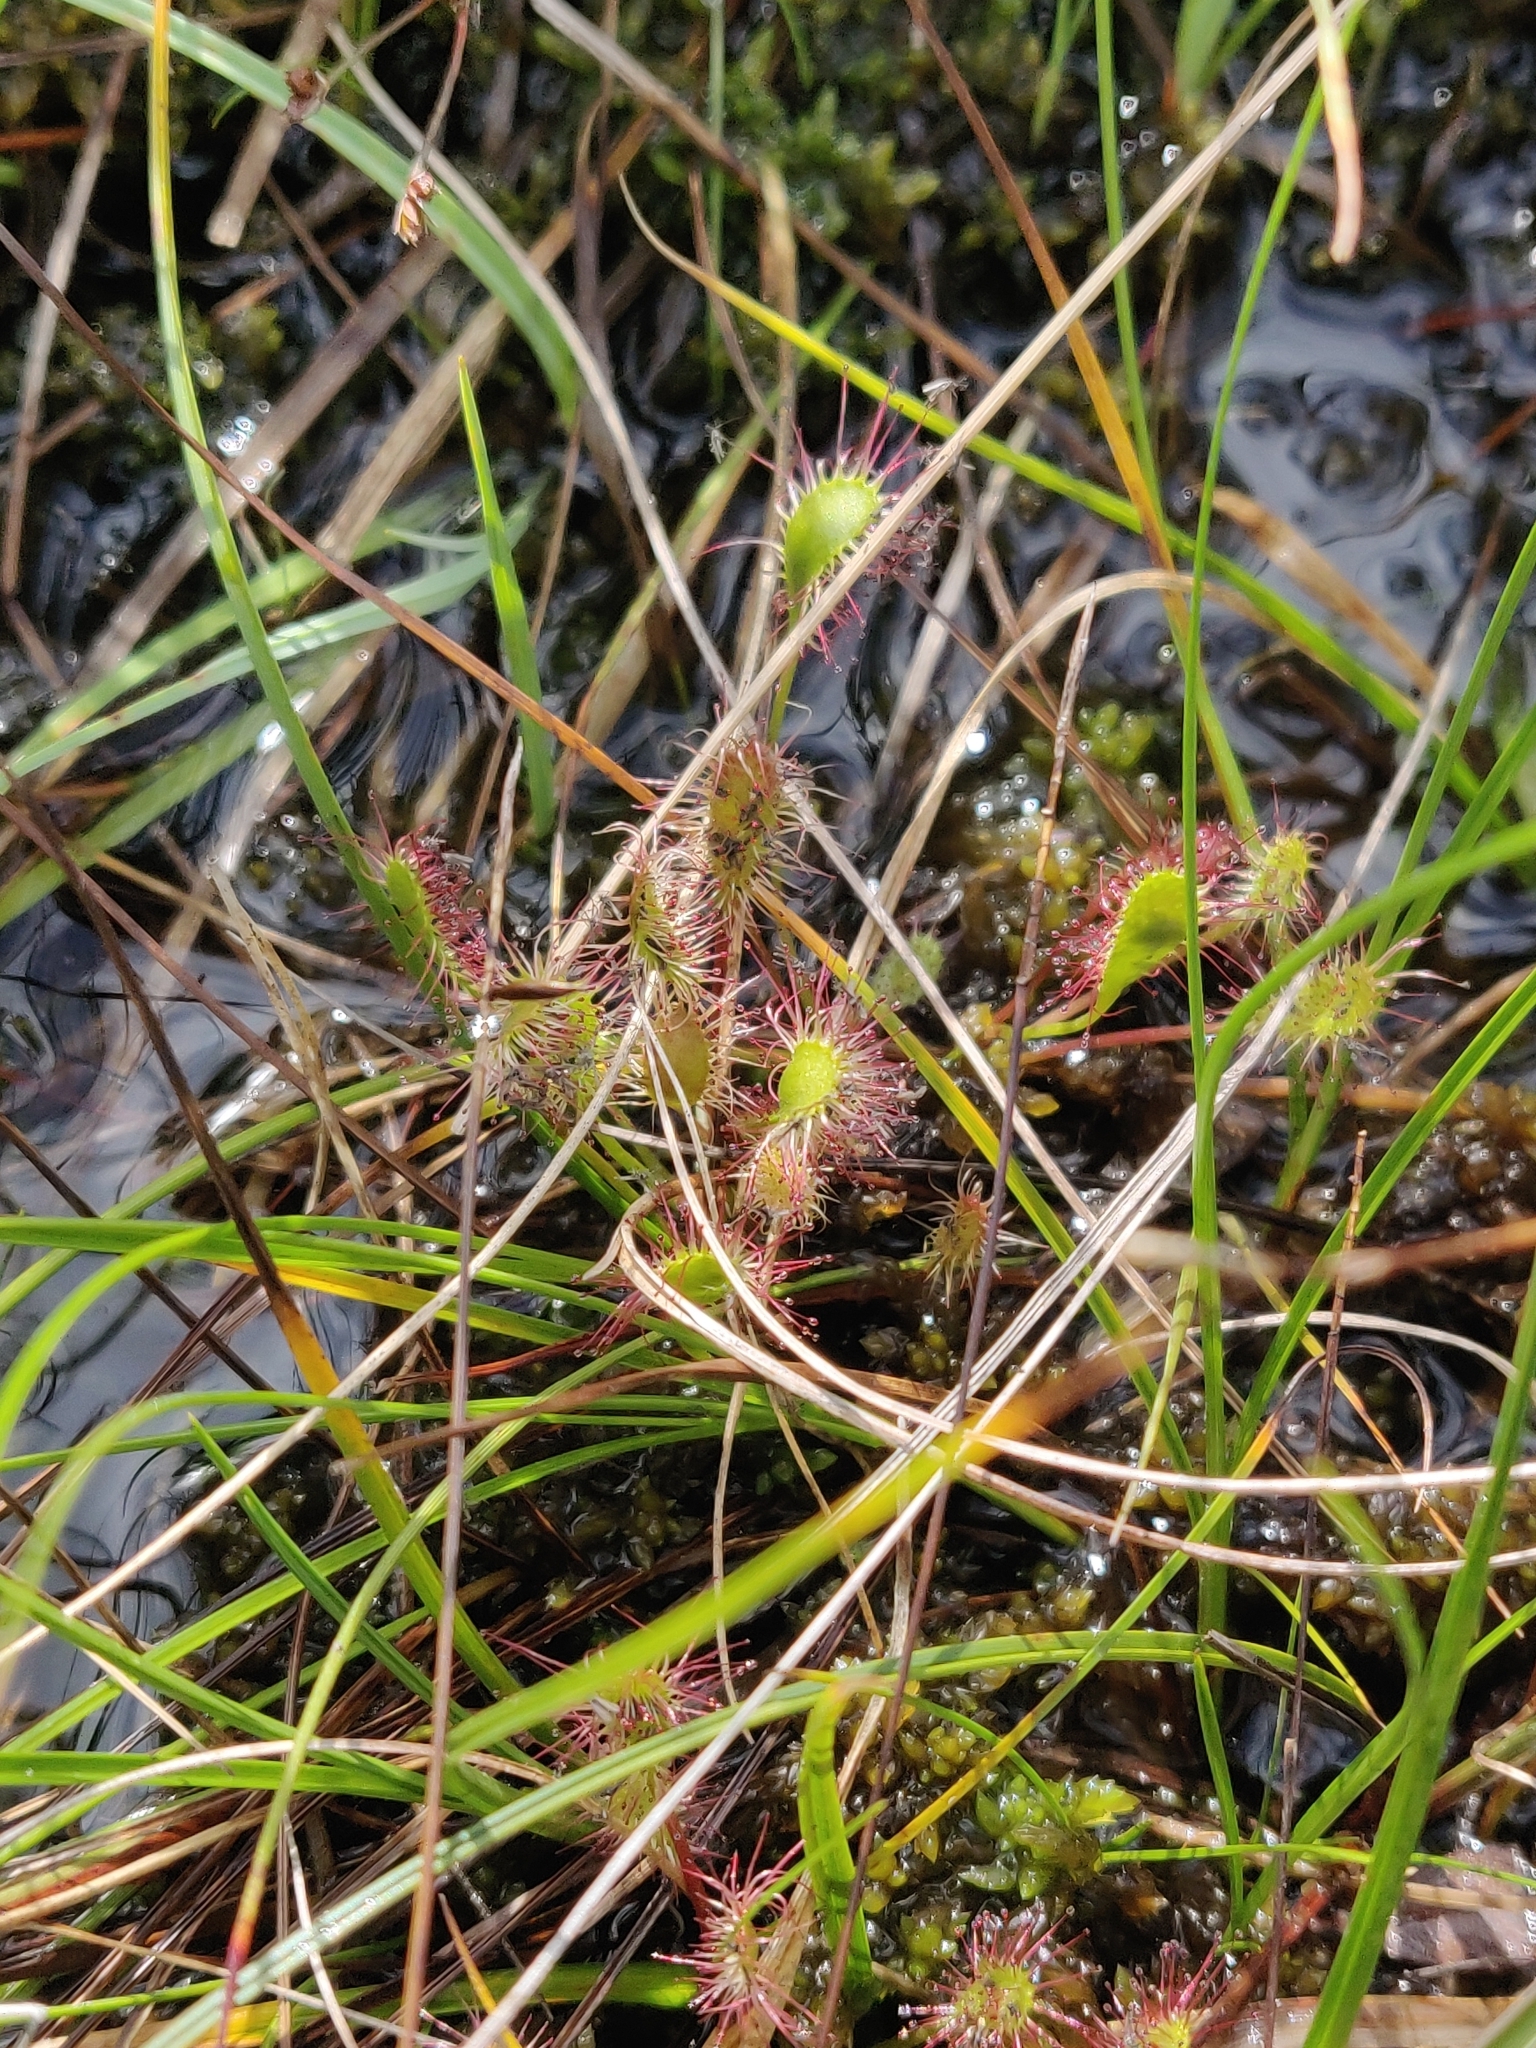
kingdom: Plantae
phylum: Tracheophyta
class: Magnoliopsida
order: Caryophyllales
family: Droseraceae
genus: Drosera
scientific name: Drosera intermedia
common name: Oblong-leaved sundew
